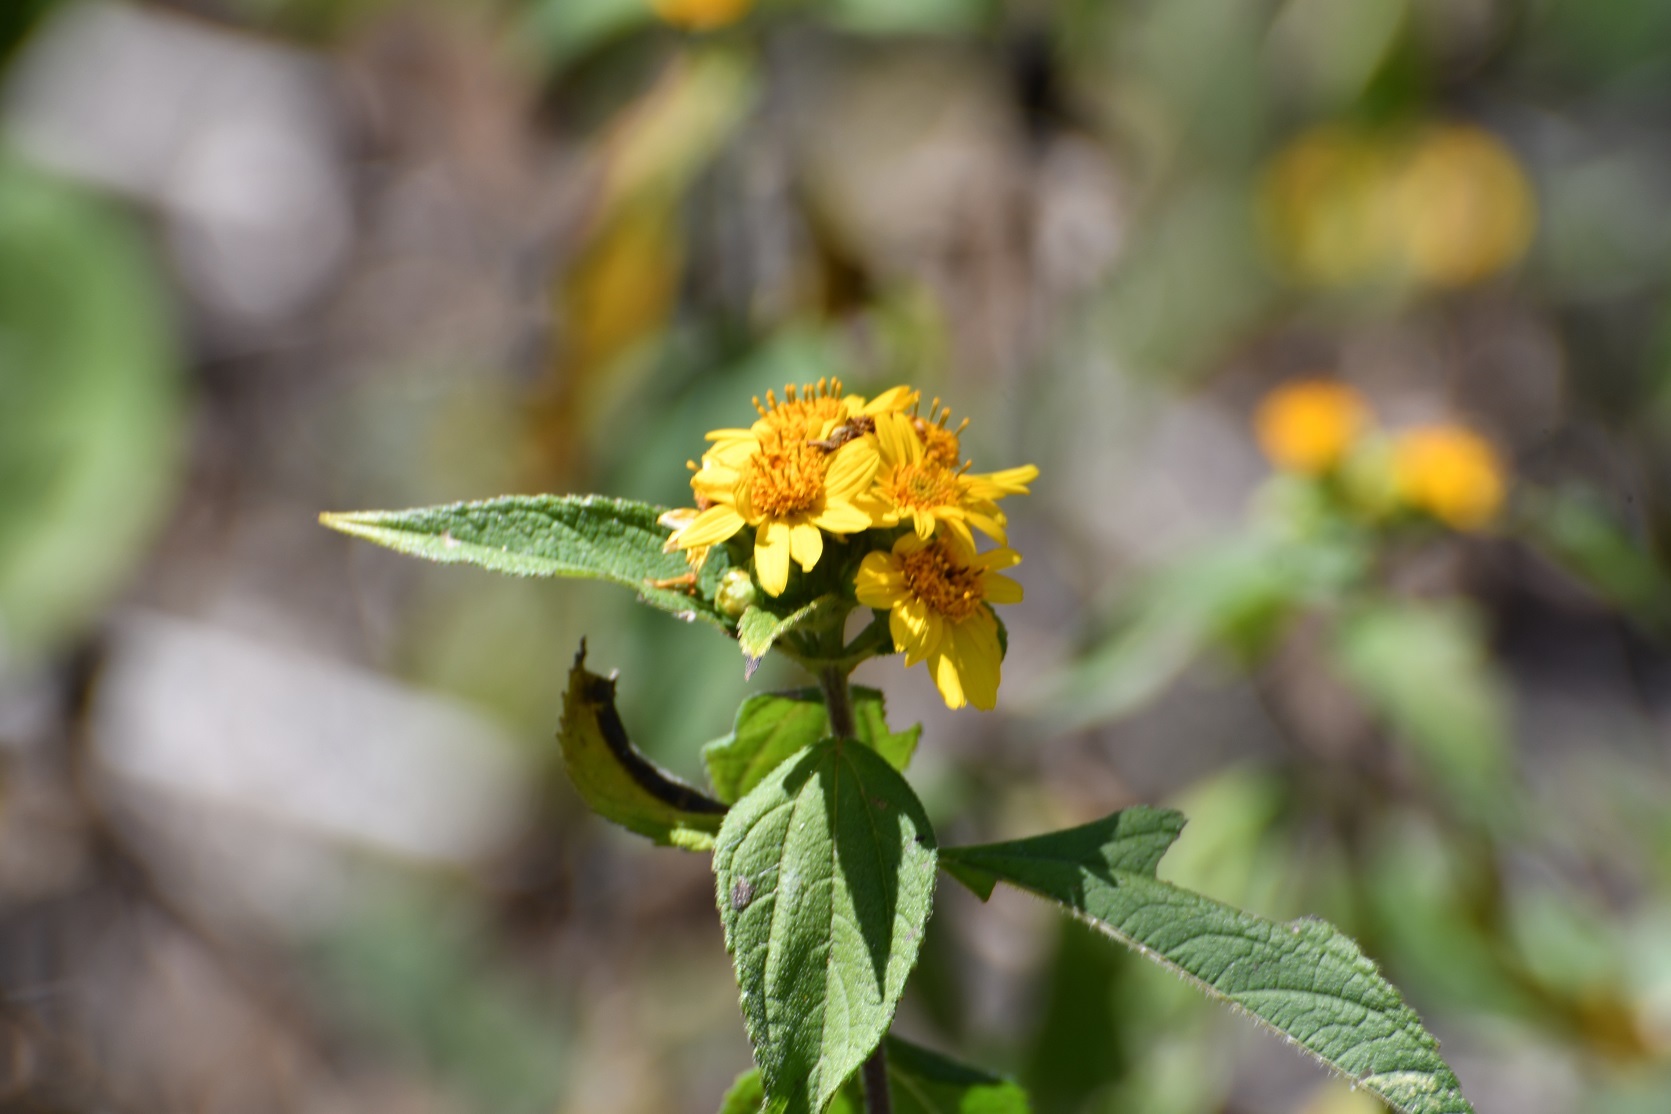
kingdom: Plantae
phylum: Tracheophyta
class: Magnoliopsida
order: Asterales
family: Asteraceae
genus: Aldama
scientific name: Aldama dentata
